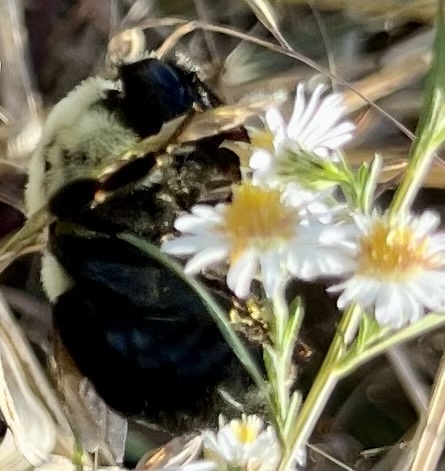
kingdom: Animalia
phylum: Arthropoda
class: Insecta
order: Hymenoptera
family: Apidae
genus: Bombus
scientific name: Bombus impatiens
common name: Common eastern bumble bee
